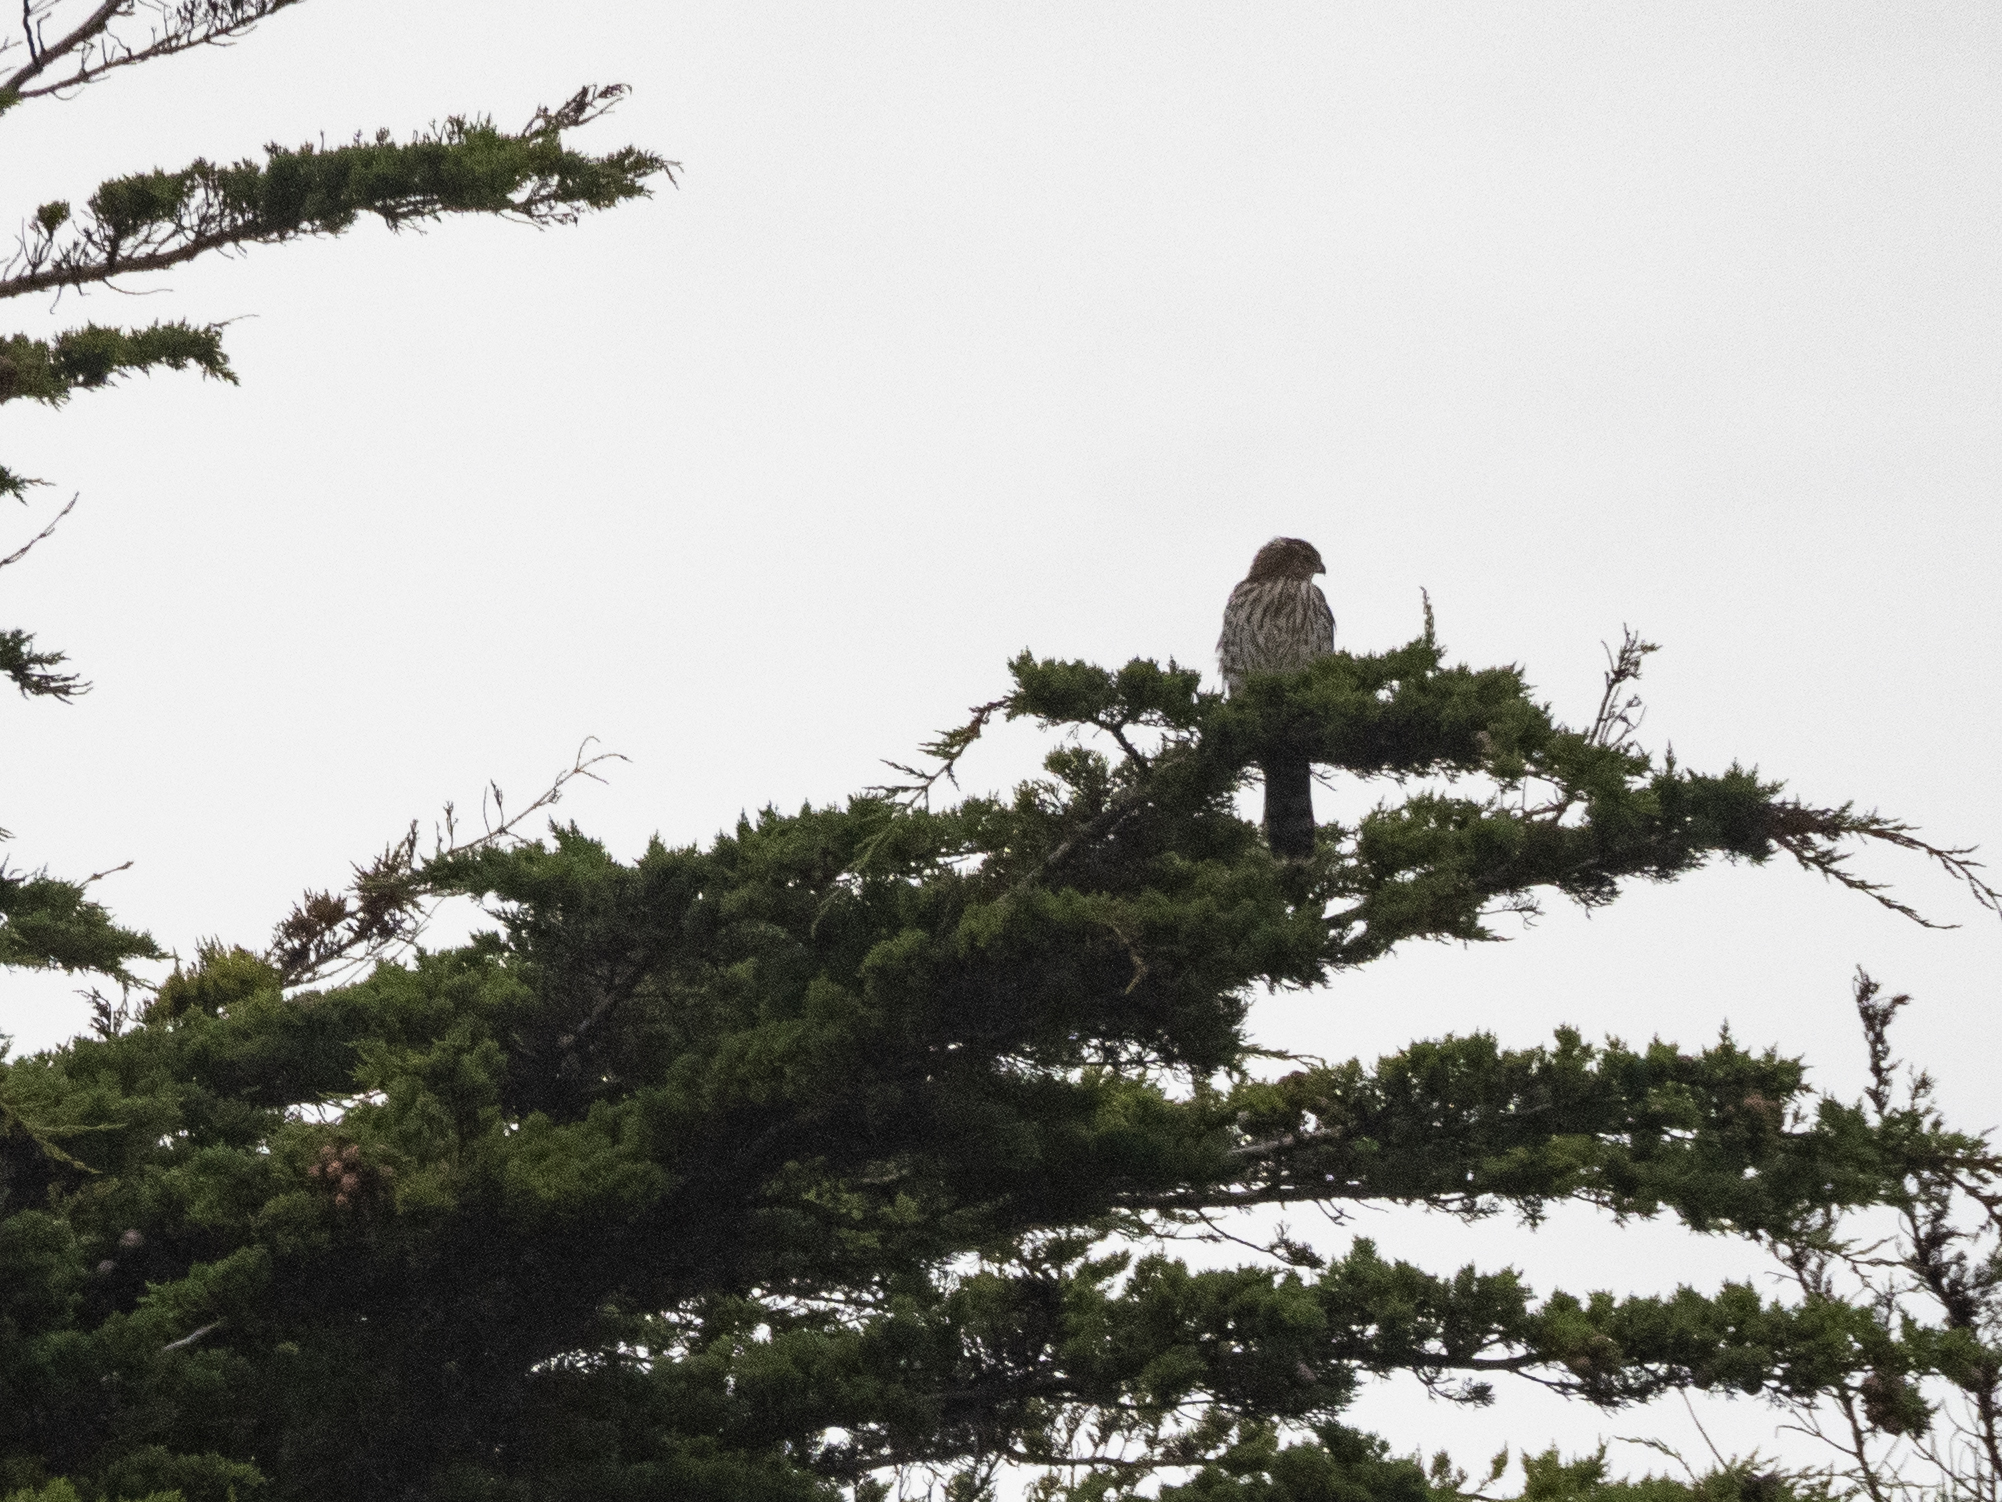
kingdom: Animalia
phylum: Chordata
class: Aves
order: Accipitriformes
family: Accipitridae
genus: Accipiter
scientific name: Accipiter cooperii
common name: Cooper's hawk
